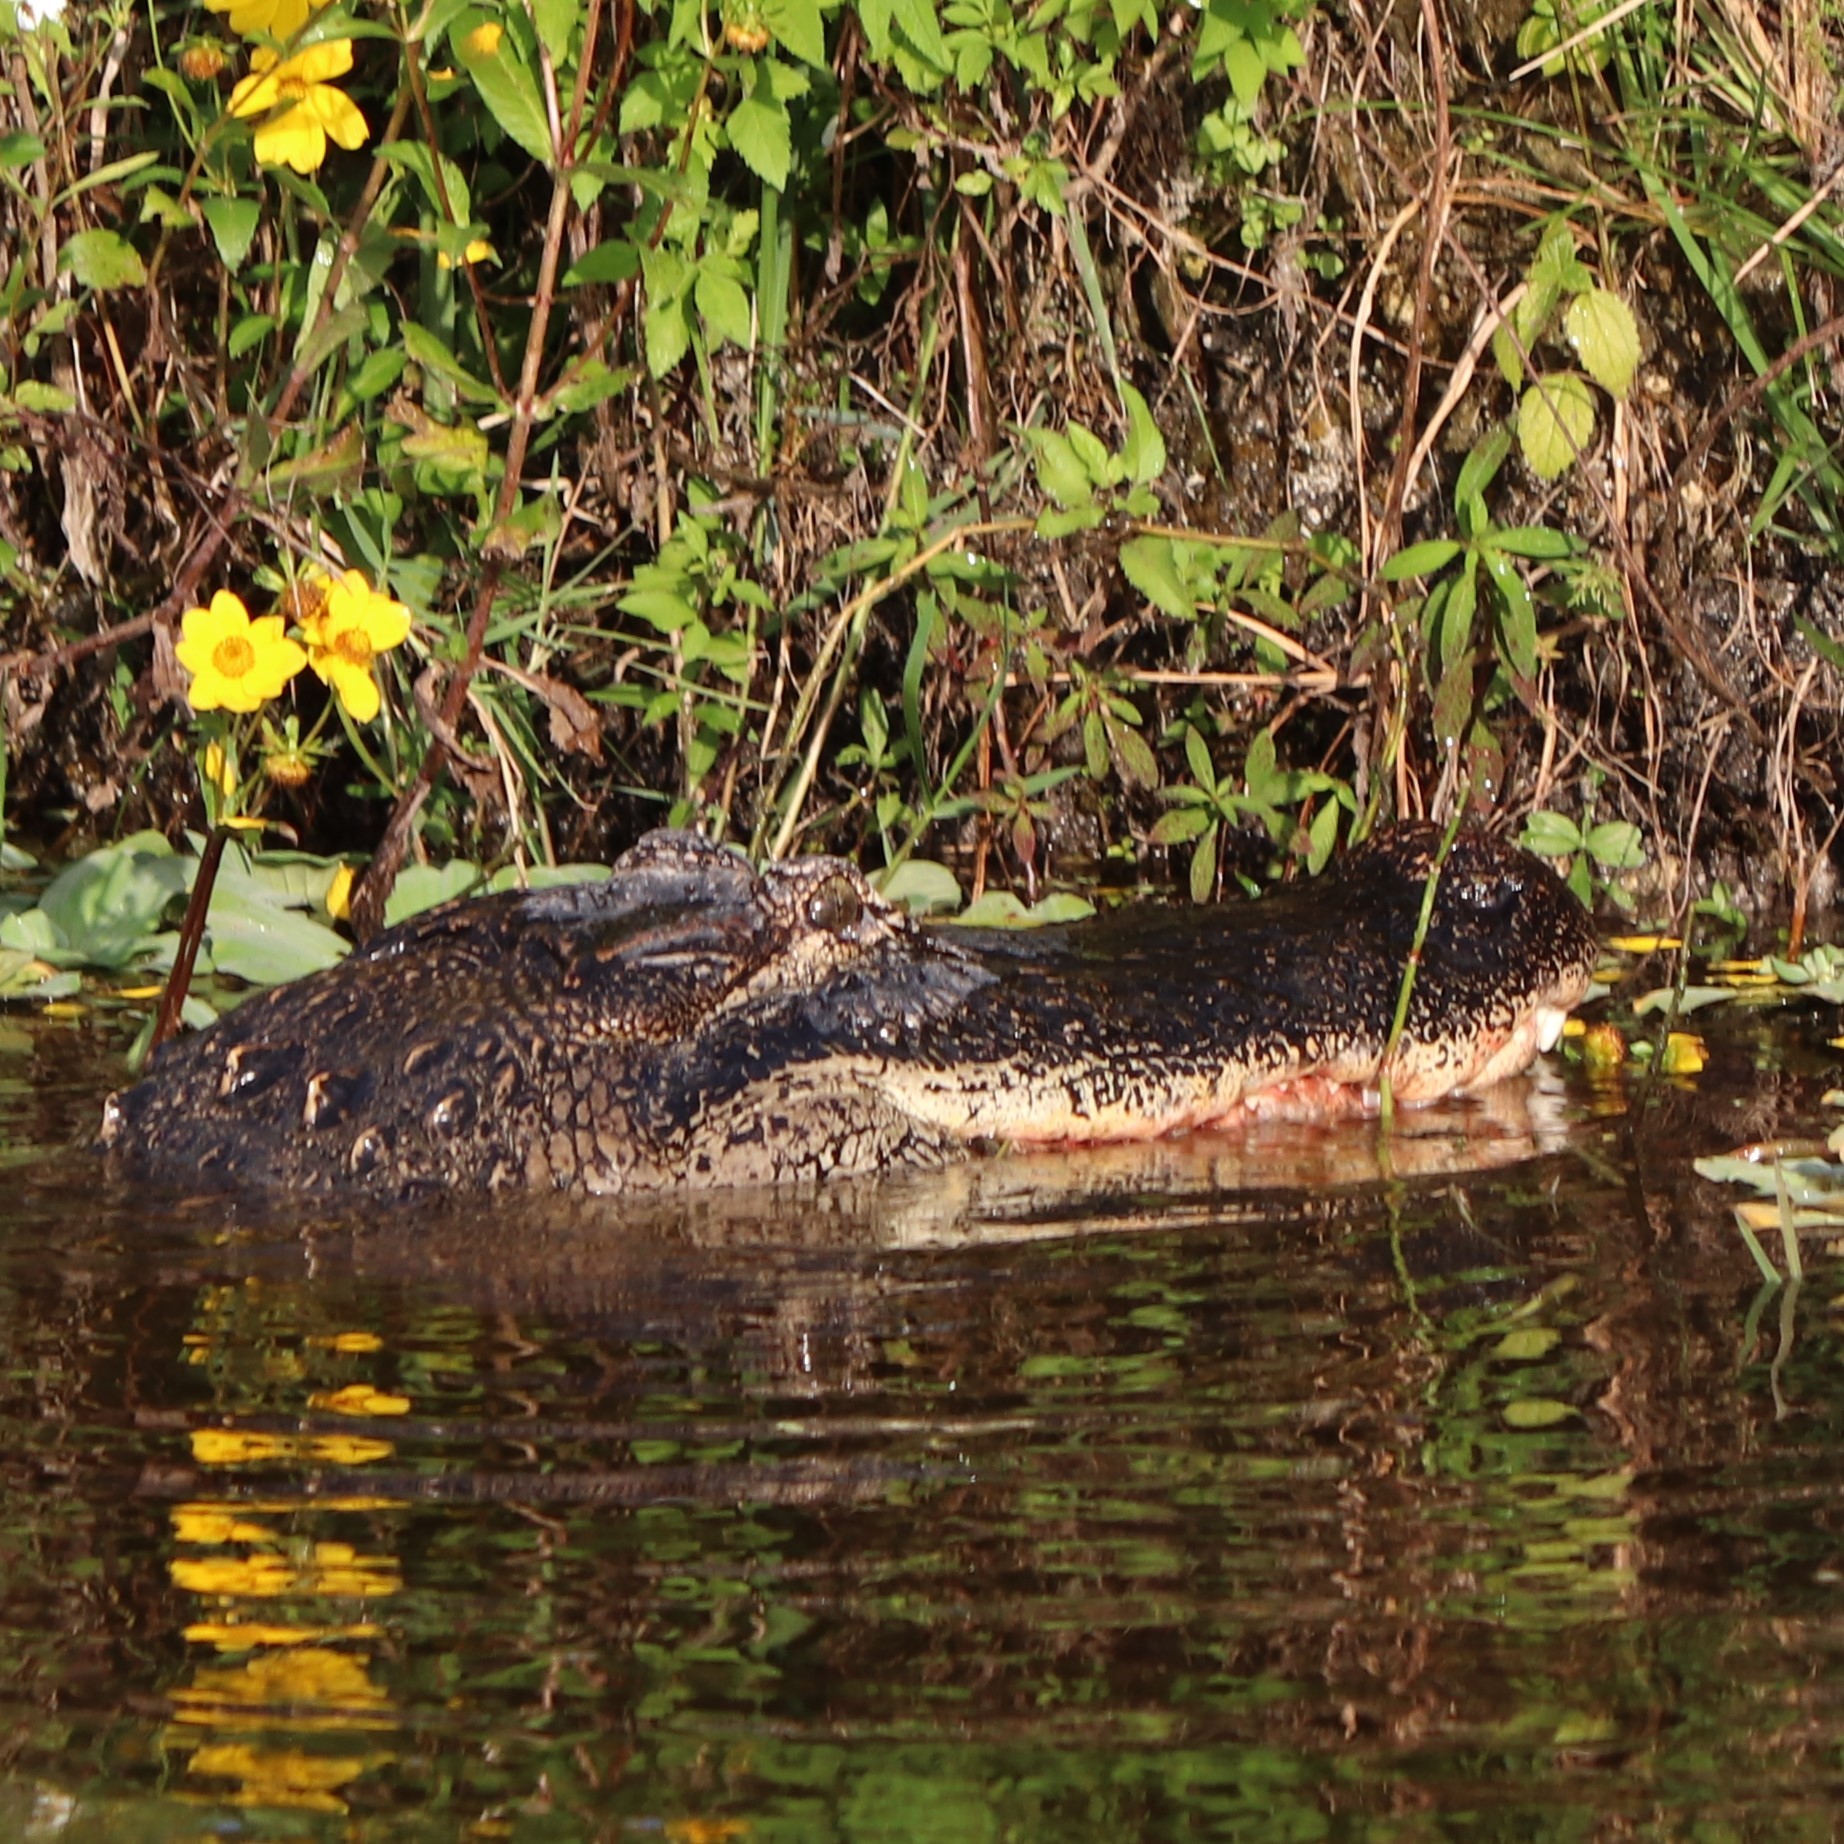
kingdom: Animalia
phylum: Chordata
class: Crocodylia
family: Alligatoridae
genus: Alligator
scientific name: Alligator mississippiensis
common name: American alligator
